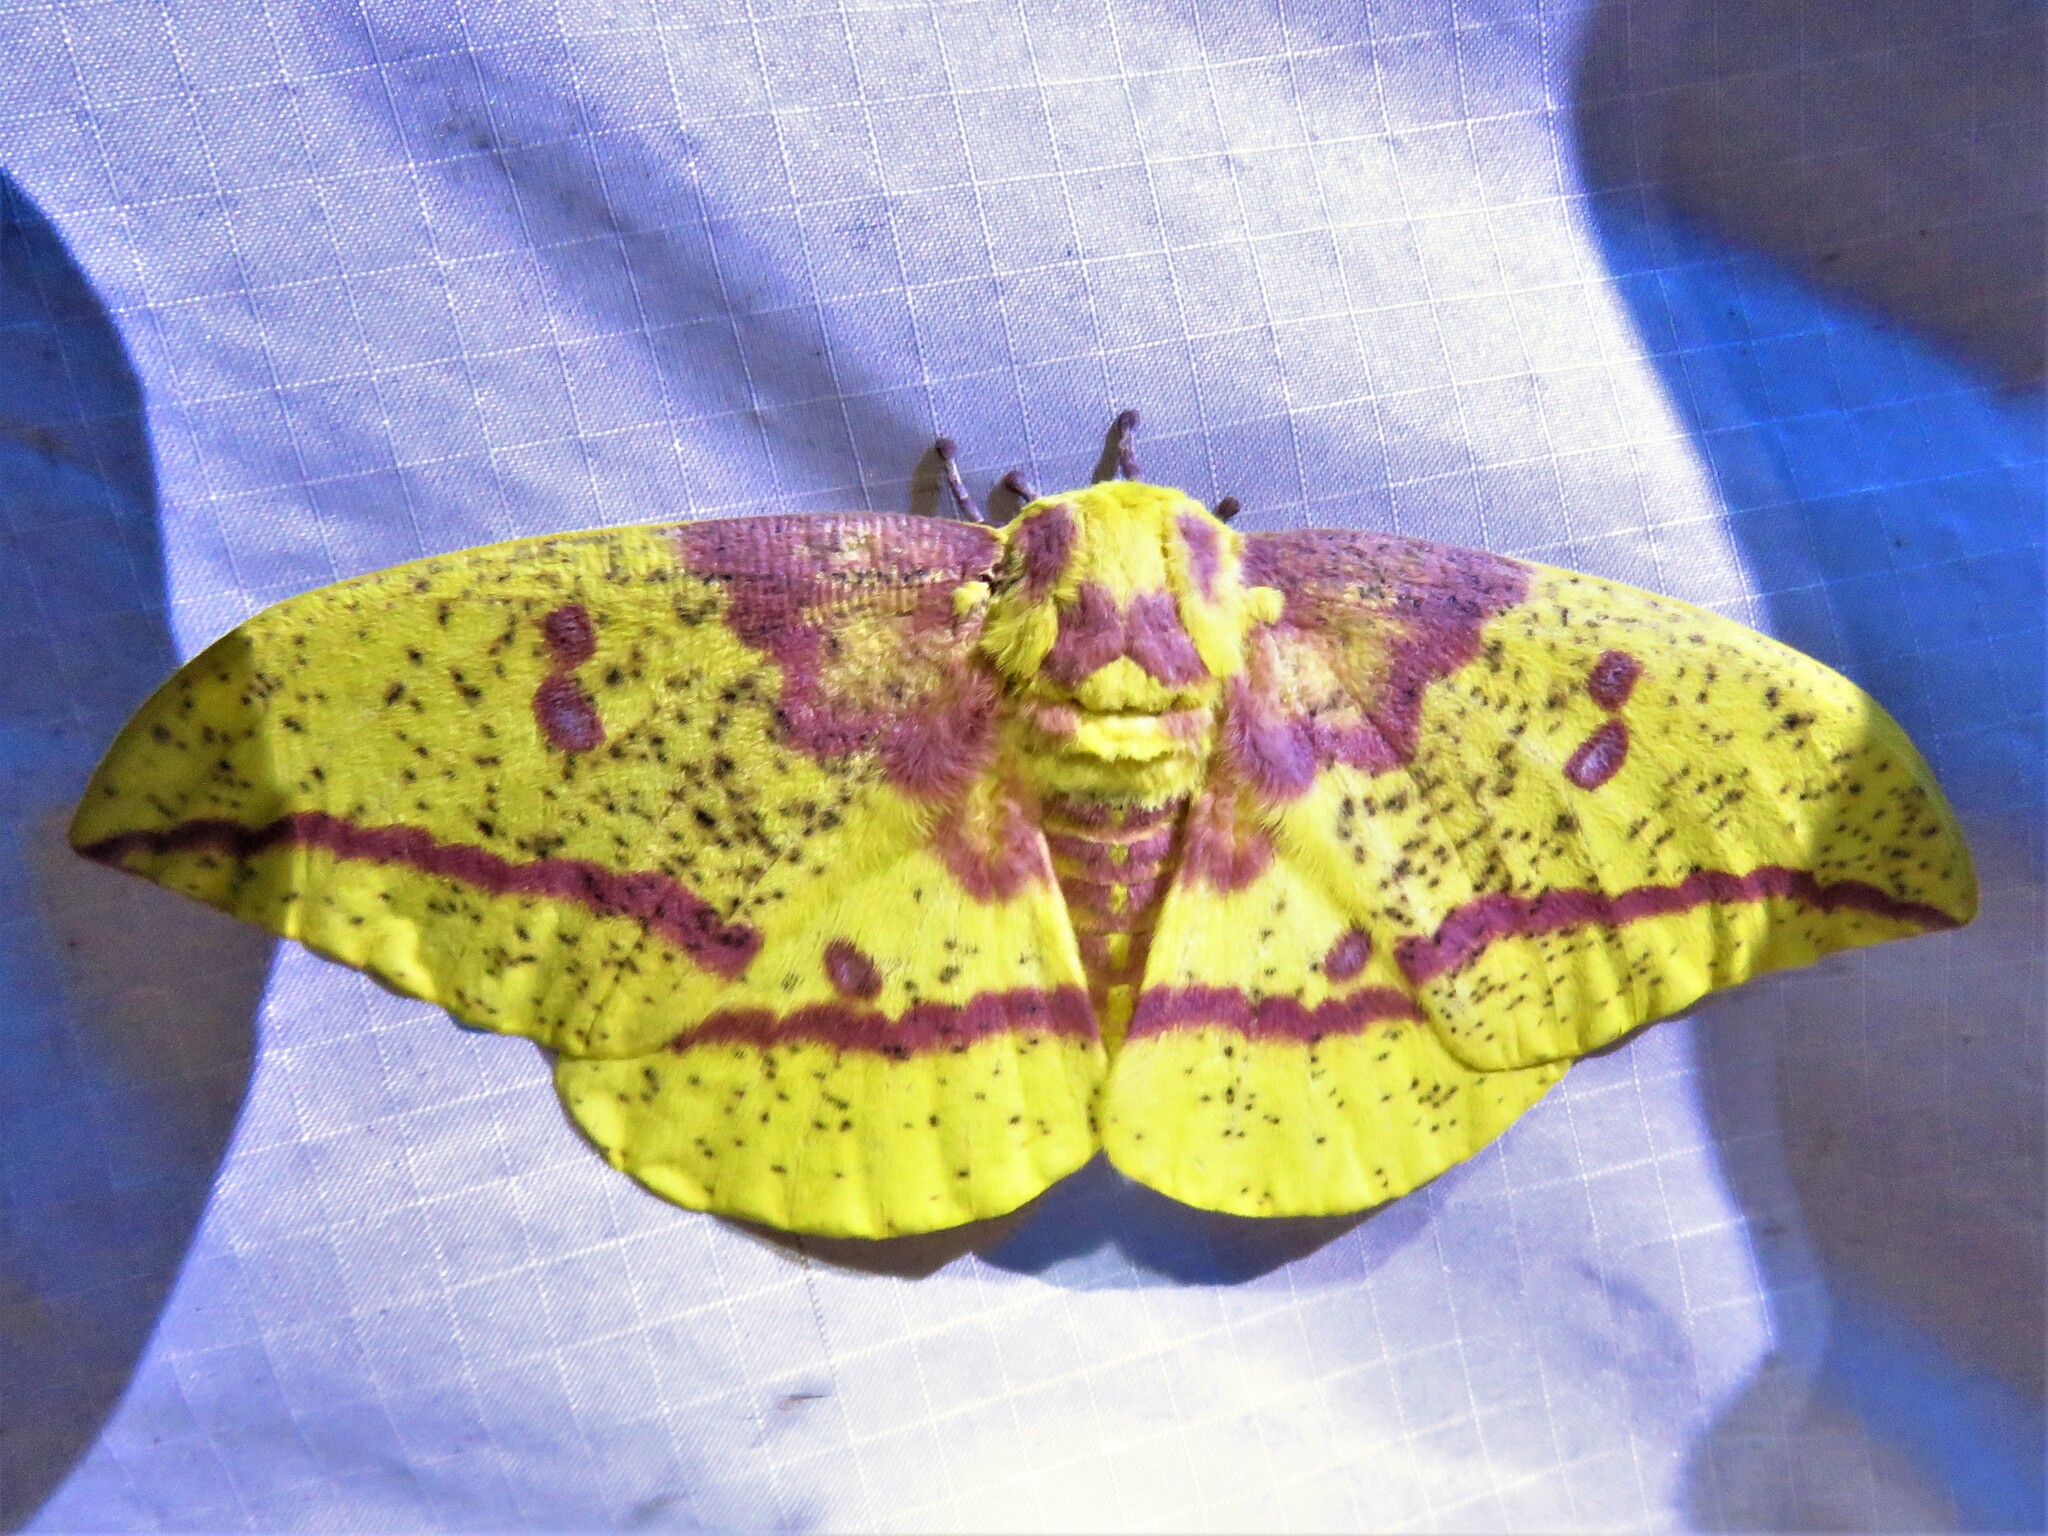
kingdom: Animalia
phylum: Arthropoda
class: Insecta
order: Lepidoptera
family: Saturniidae
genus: Eacles
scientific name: Eacles imperialis
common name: Imperial moth
